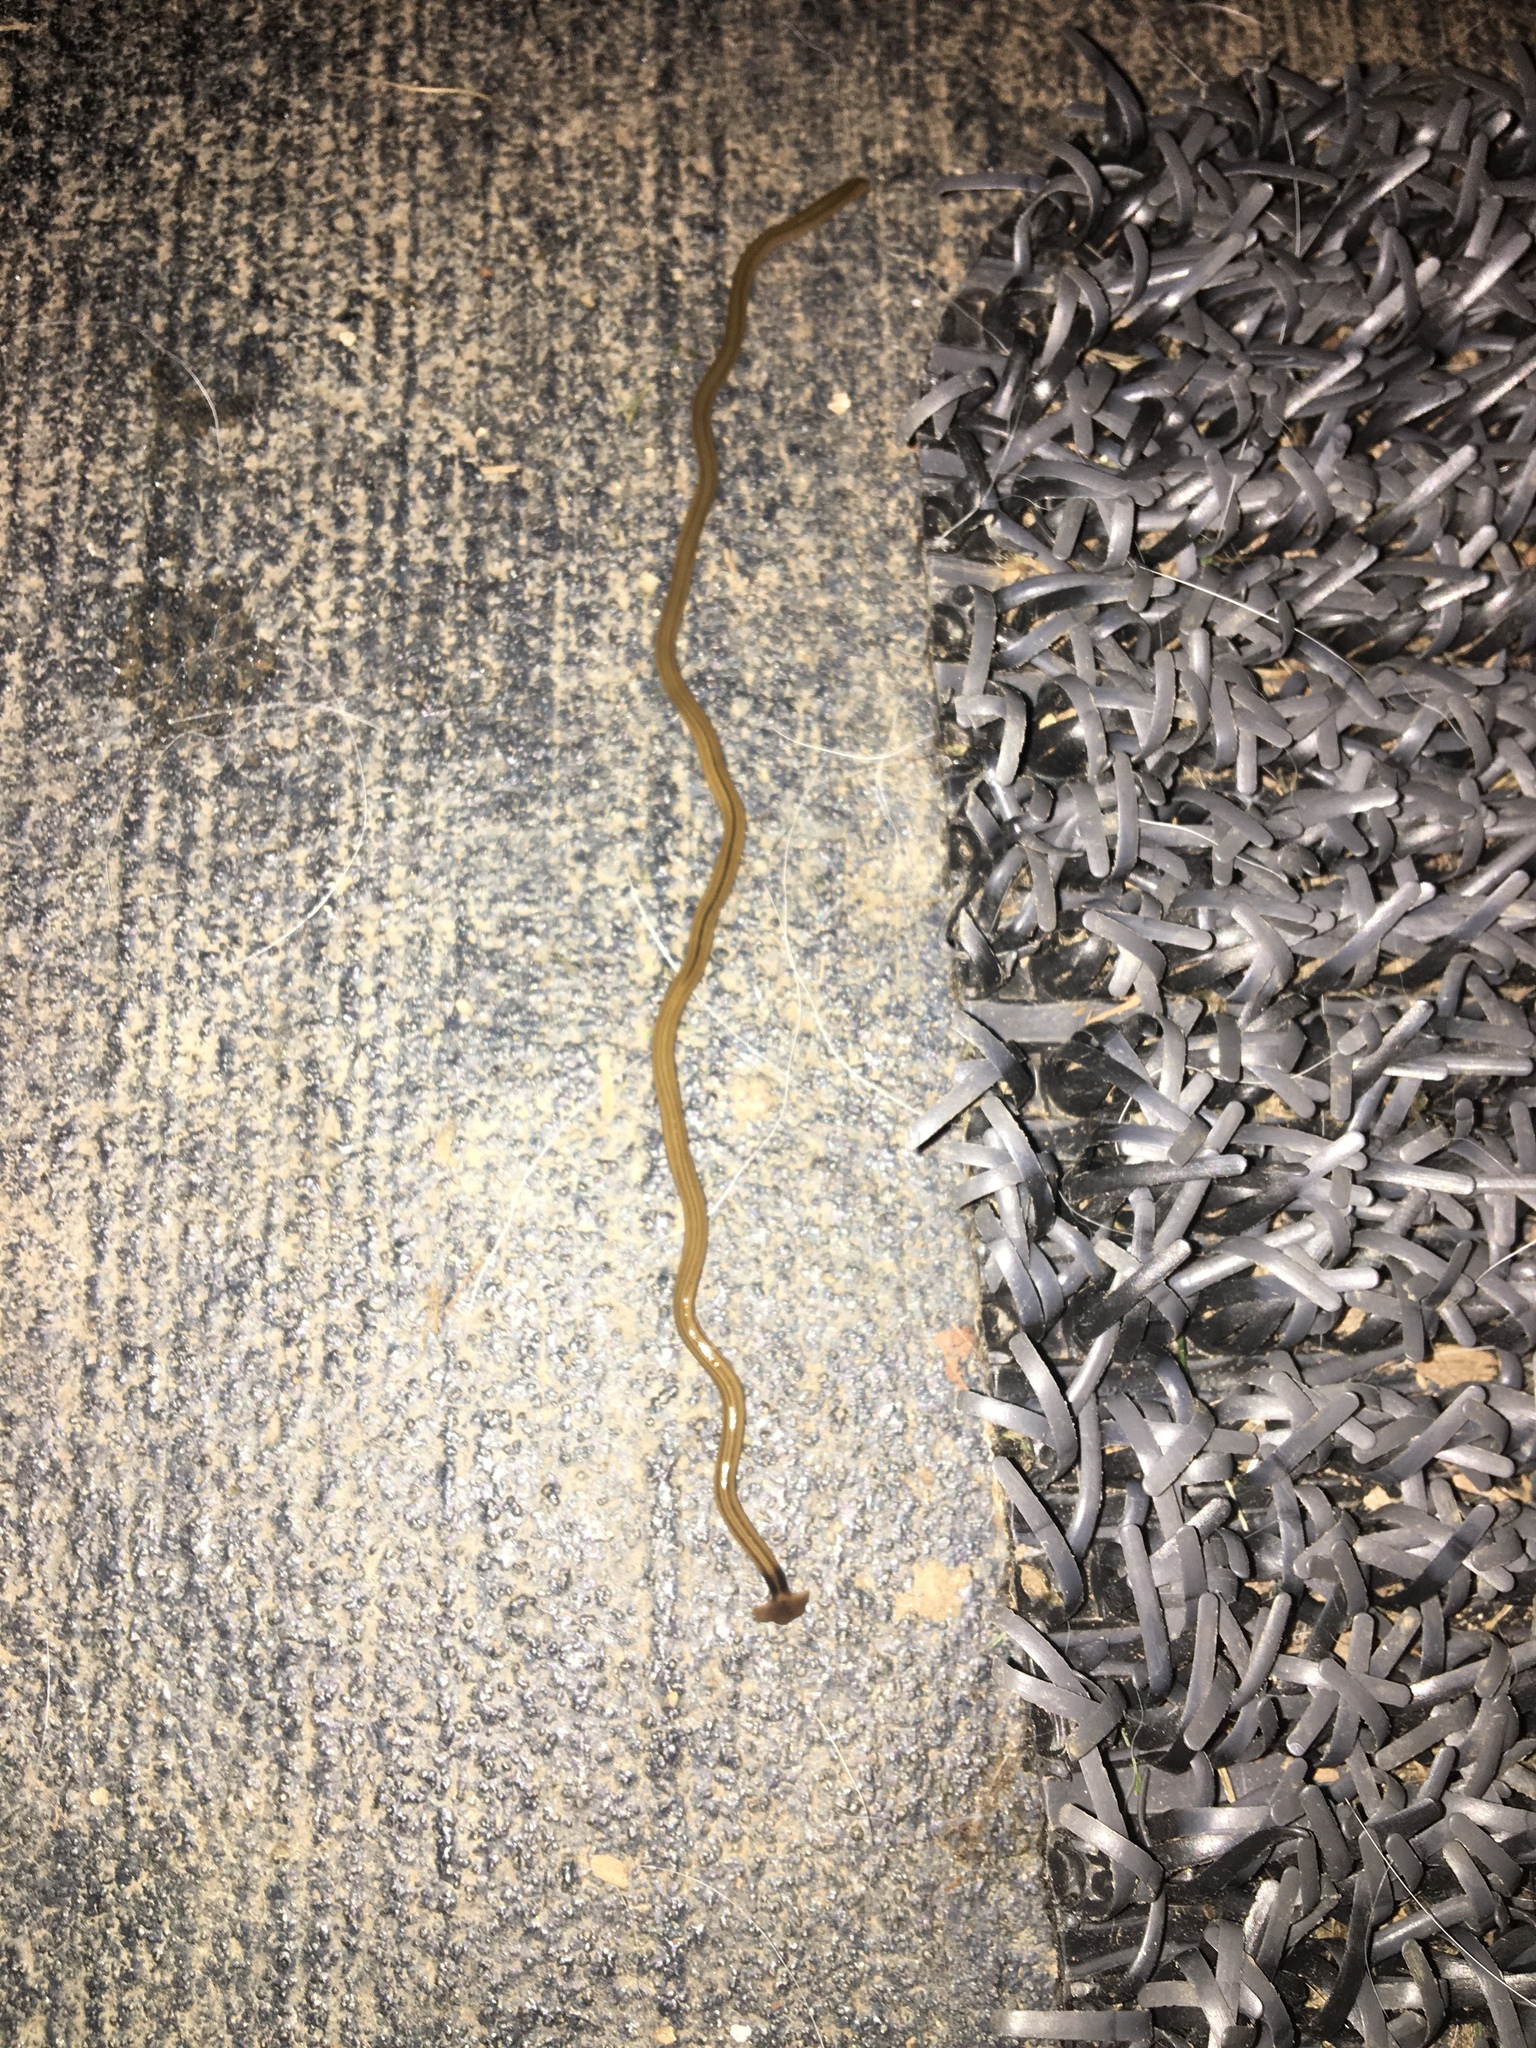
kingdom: Animalia
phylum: Platyhelminthes
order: Tricladida
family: Geoplanidae
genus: Bipalium
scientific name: Bipalium kewense
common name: Hammerhead flatworm
